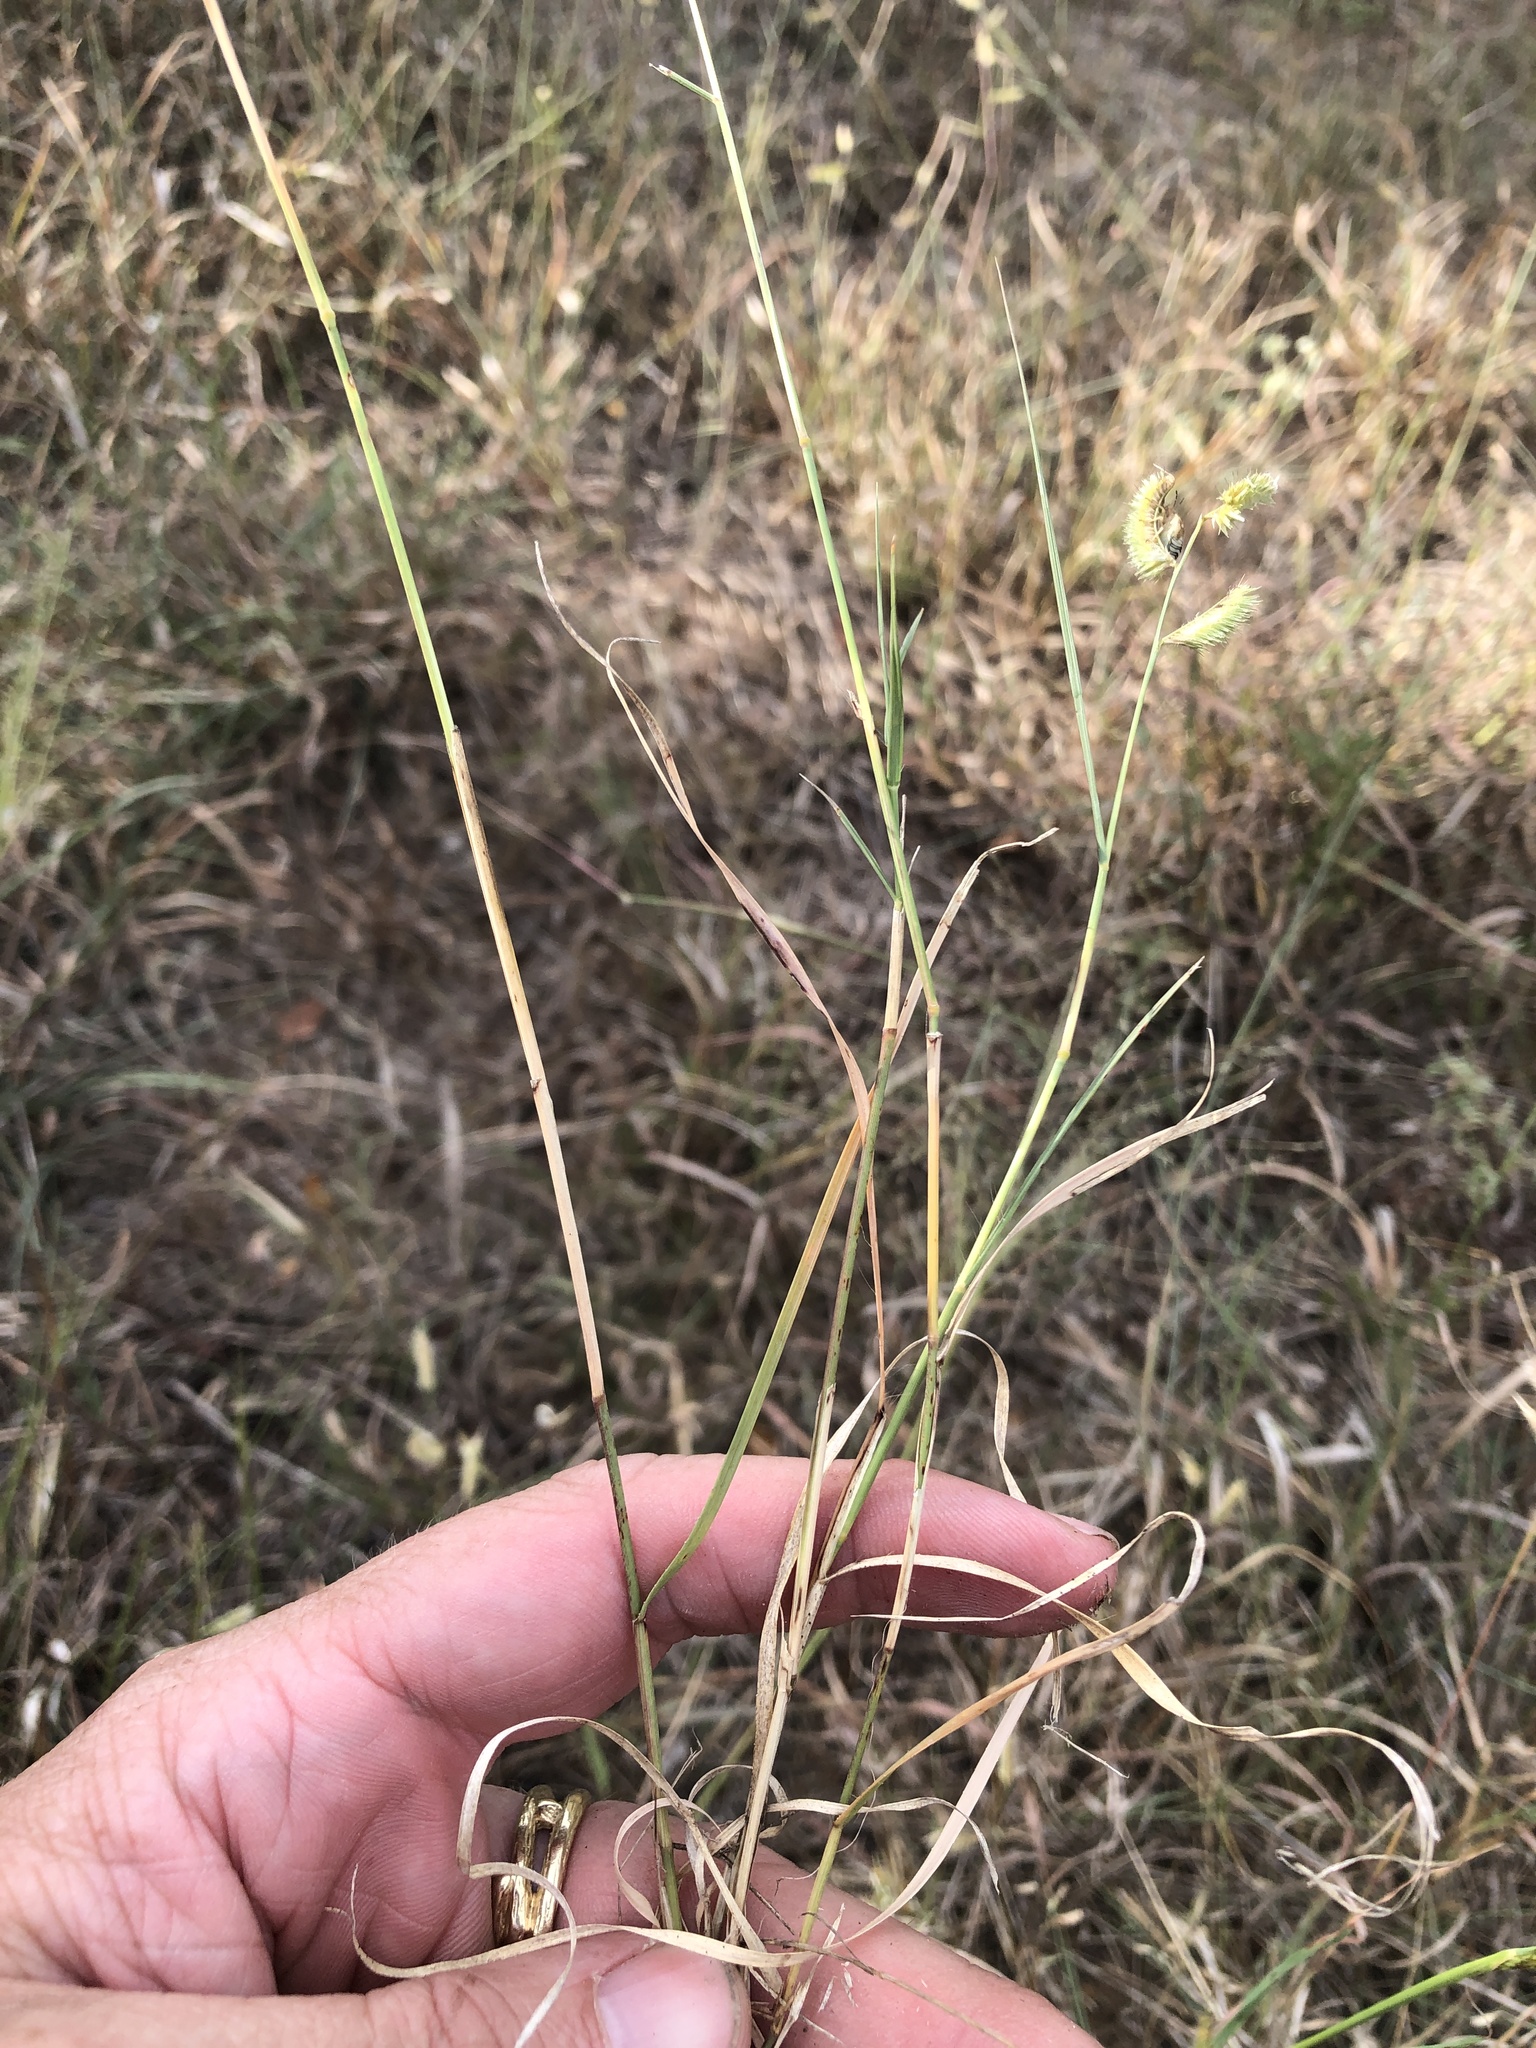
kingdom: Plantae
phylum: Tracheophyta
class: Liliopsida
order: Poales
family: Poaceae
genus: Bouteloua
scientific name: Bouteloua hirsuta
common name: Hairy grama
